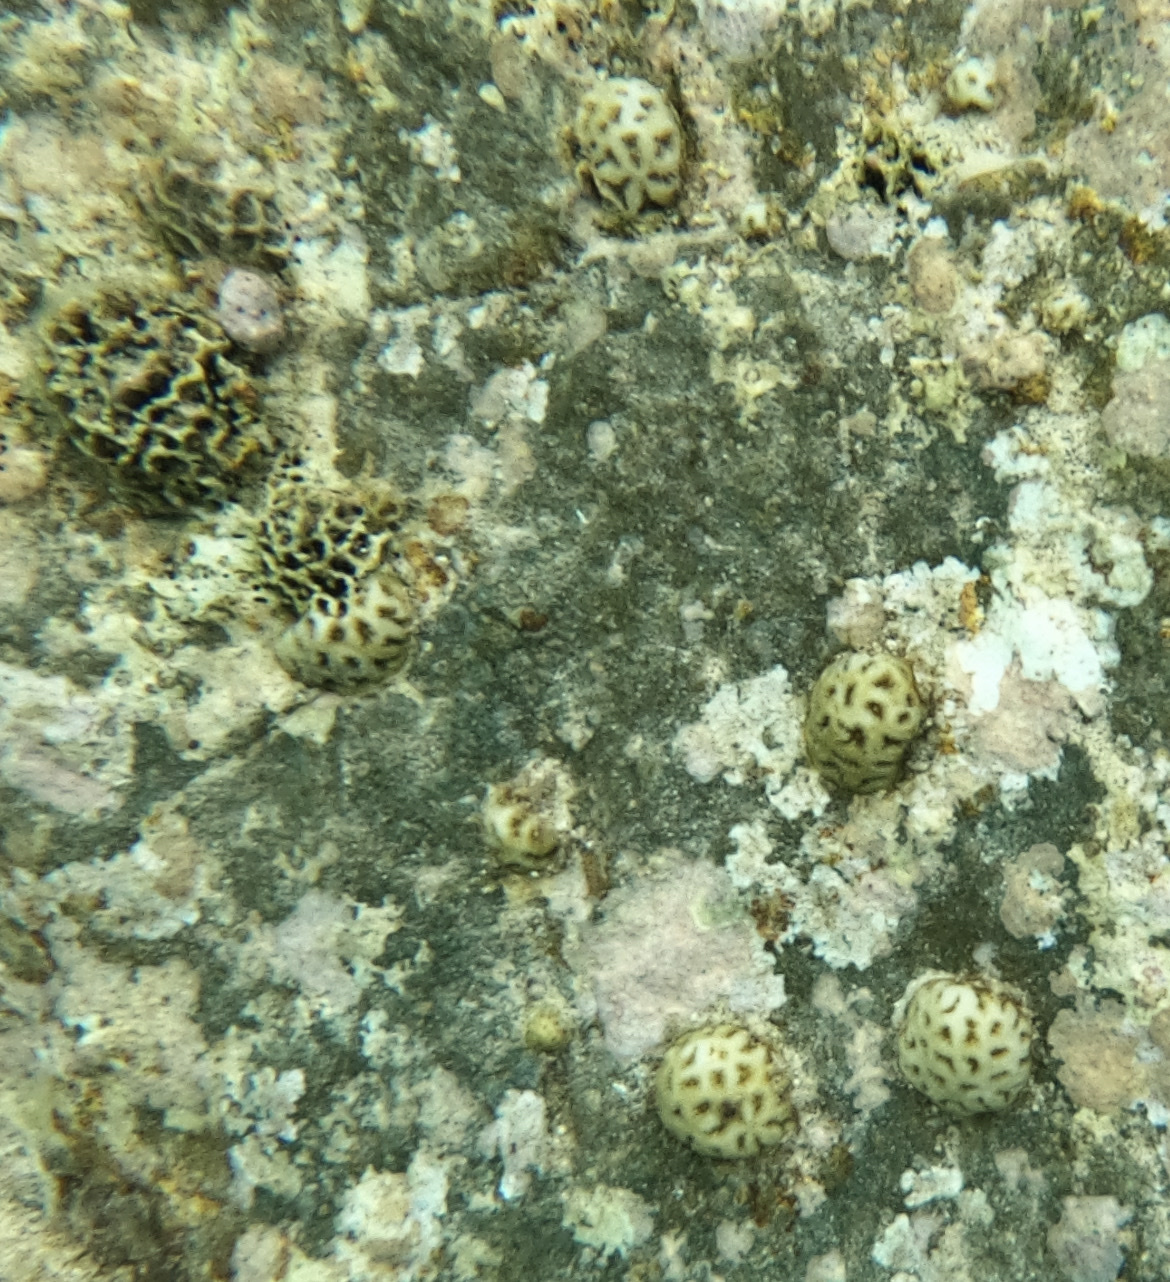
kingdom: Animalia
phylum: Cnidaria
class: Anthozoa
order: Scleractinia
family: Faviidae
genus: Favia
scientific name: Favia fragum
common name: Golfball coral
